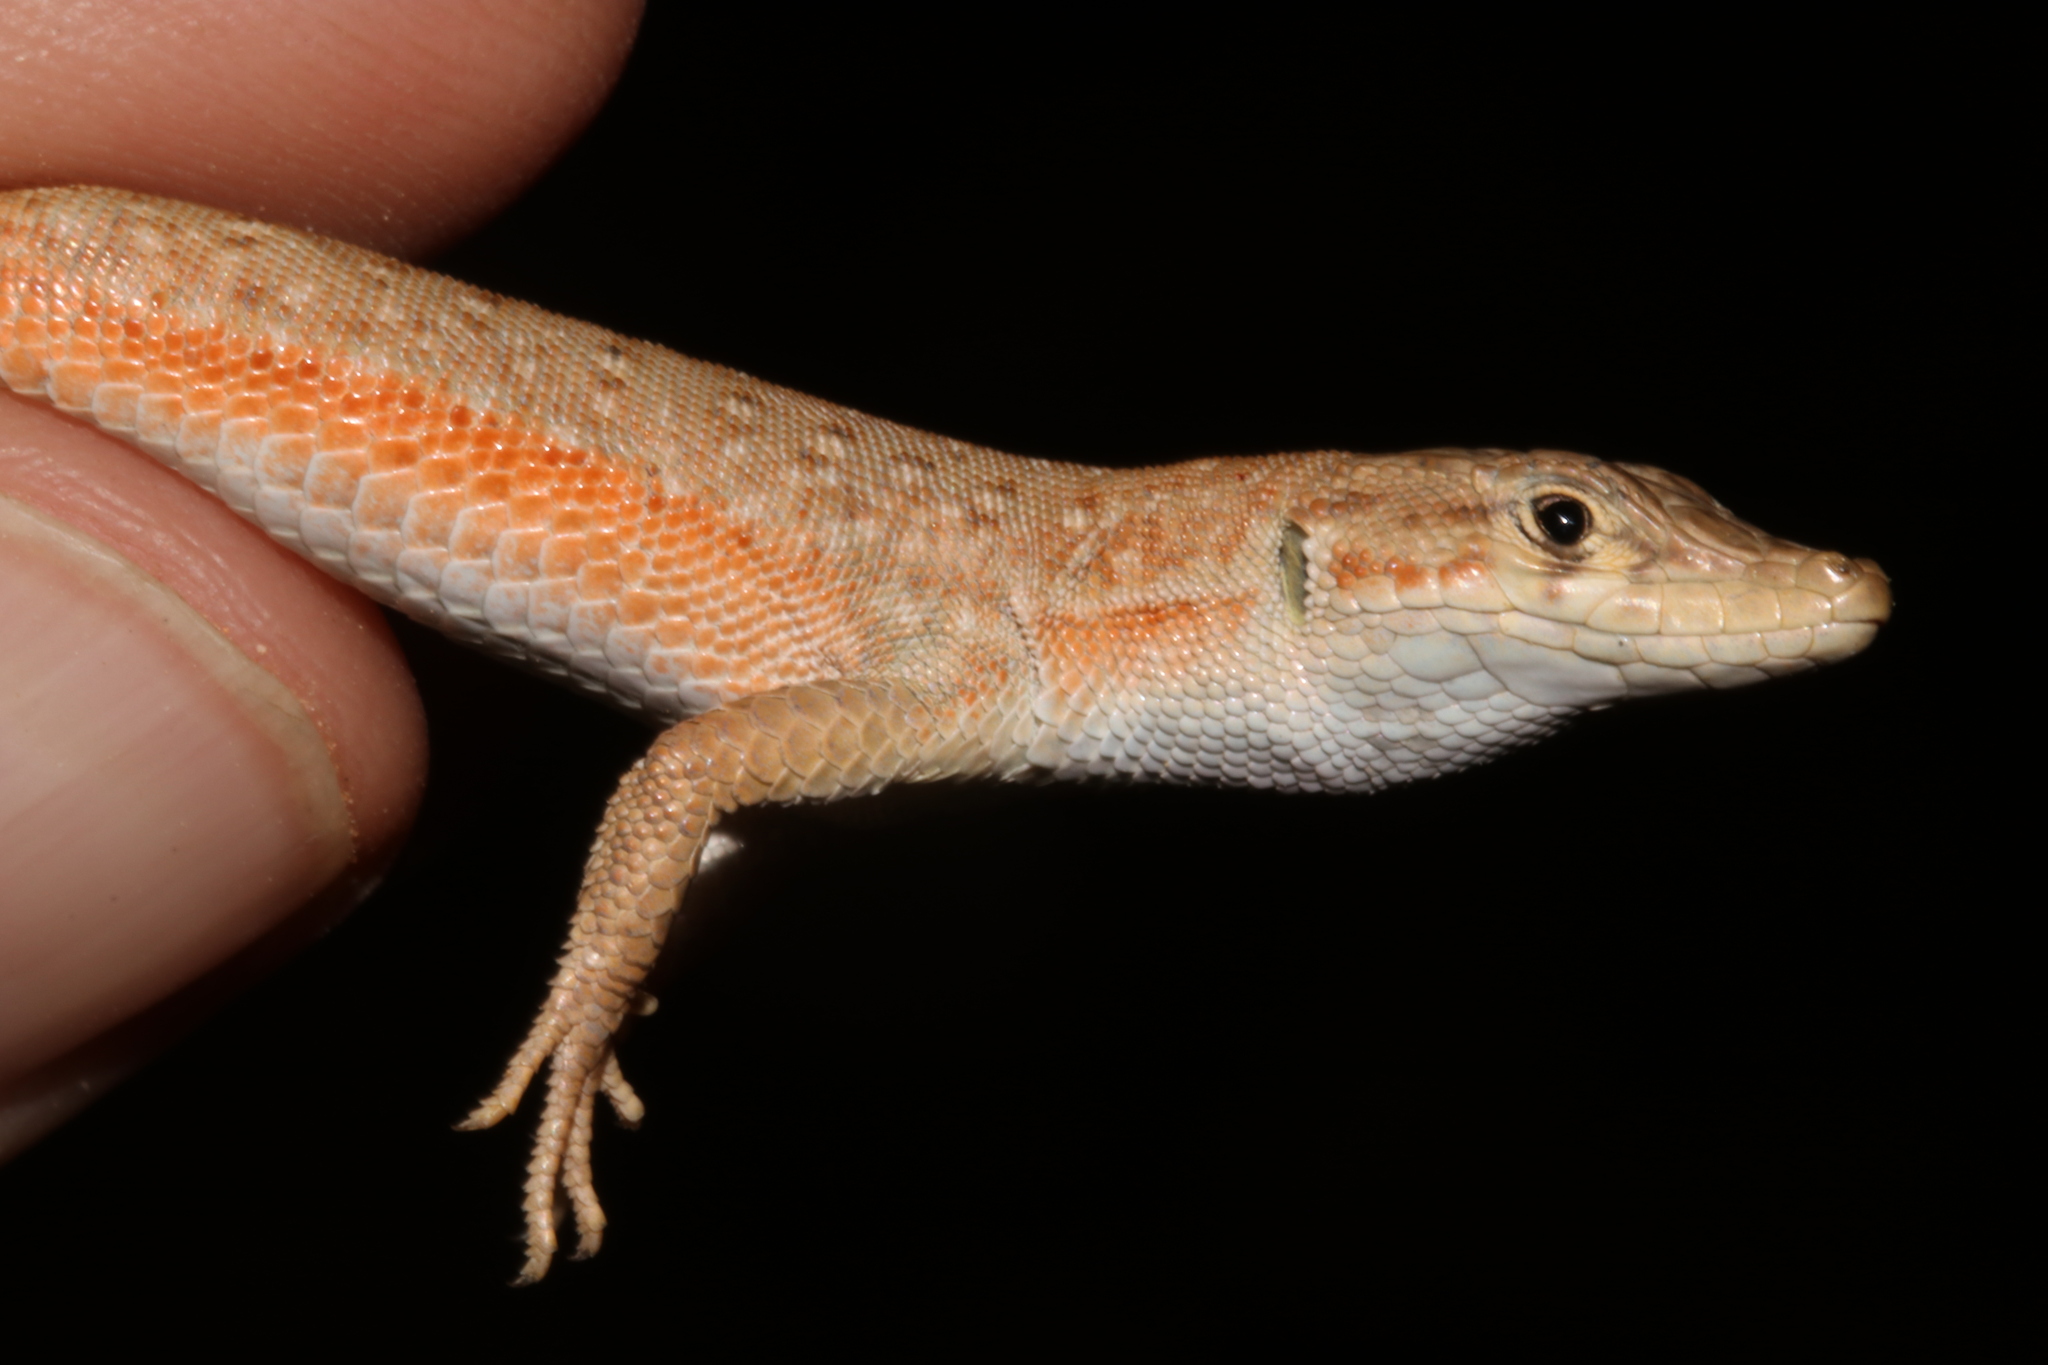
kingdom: Animalia
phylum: Chordata
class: Squamata
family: Lacertidae
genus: Mesalina
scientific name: Mesalina guttulata
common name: Desert lacerta
